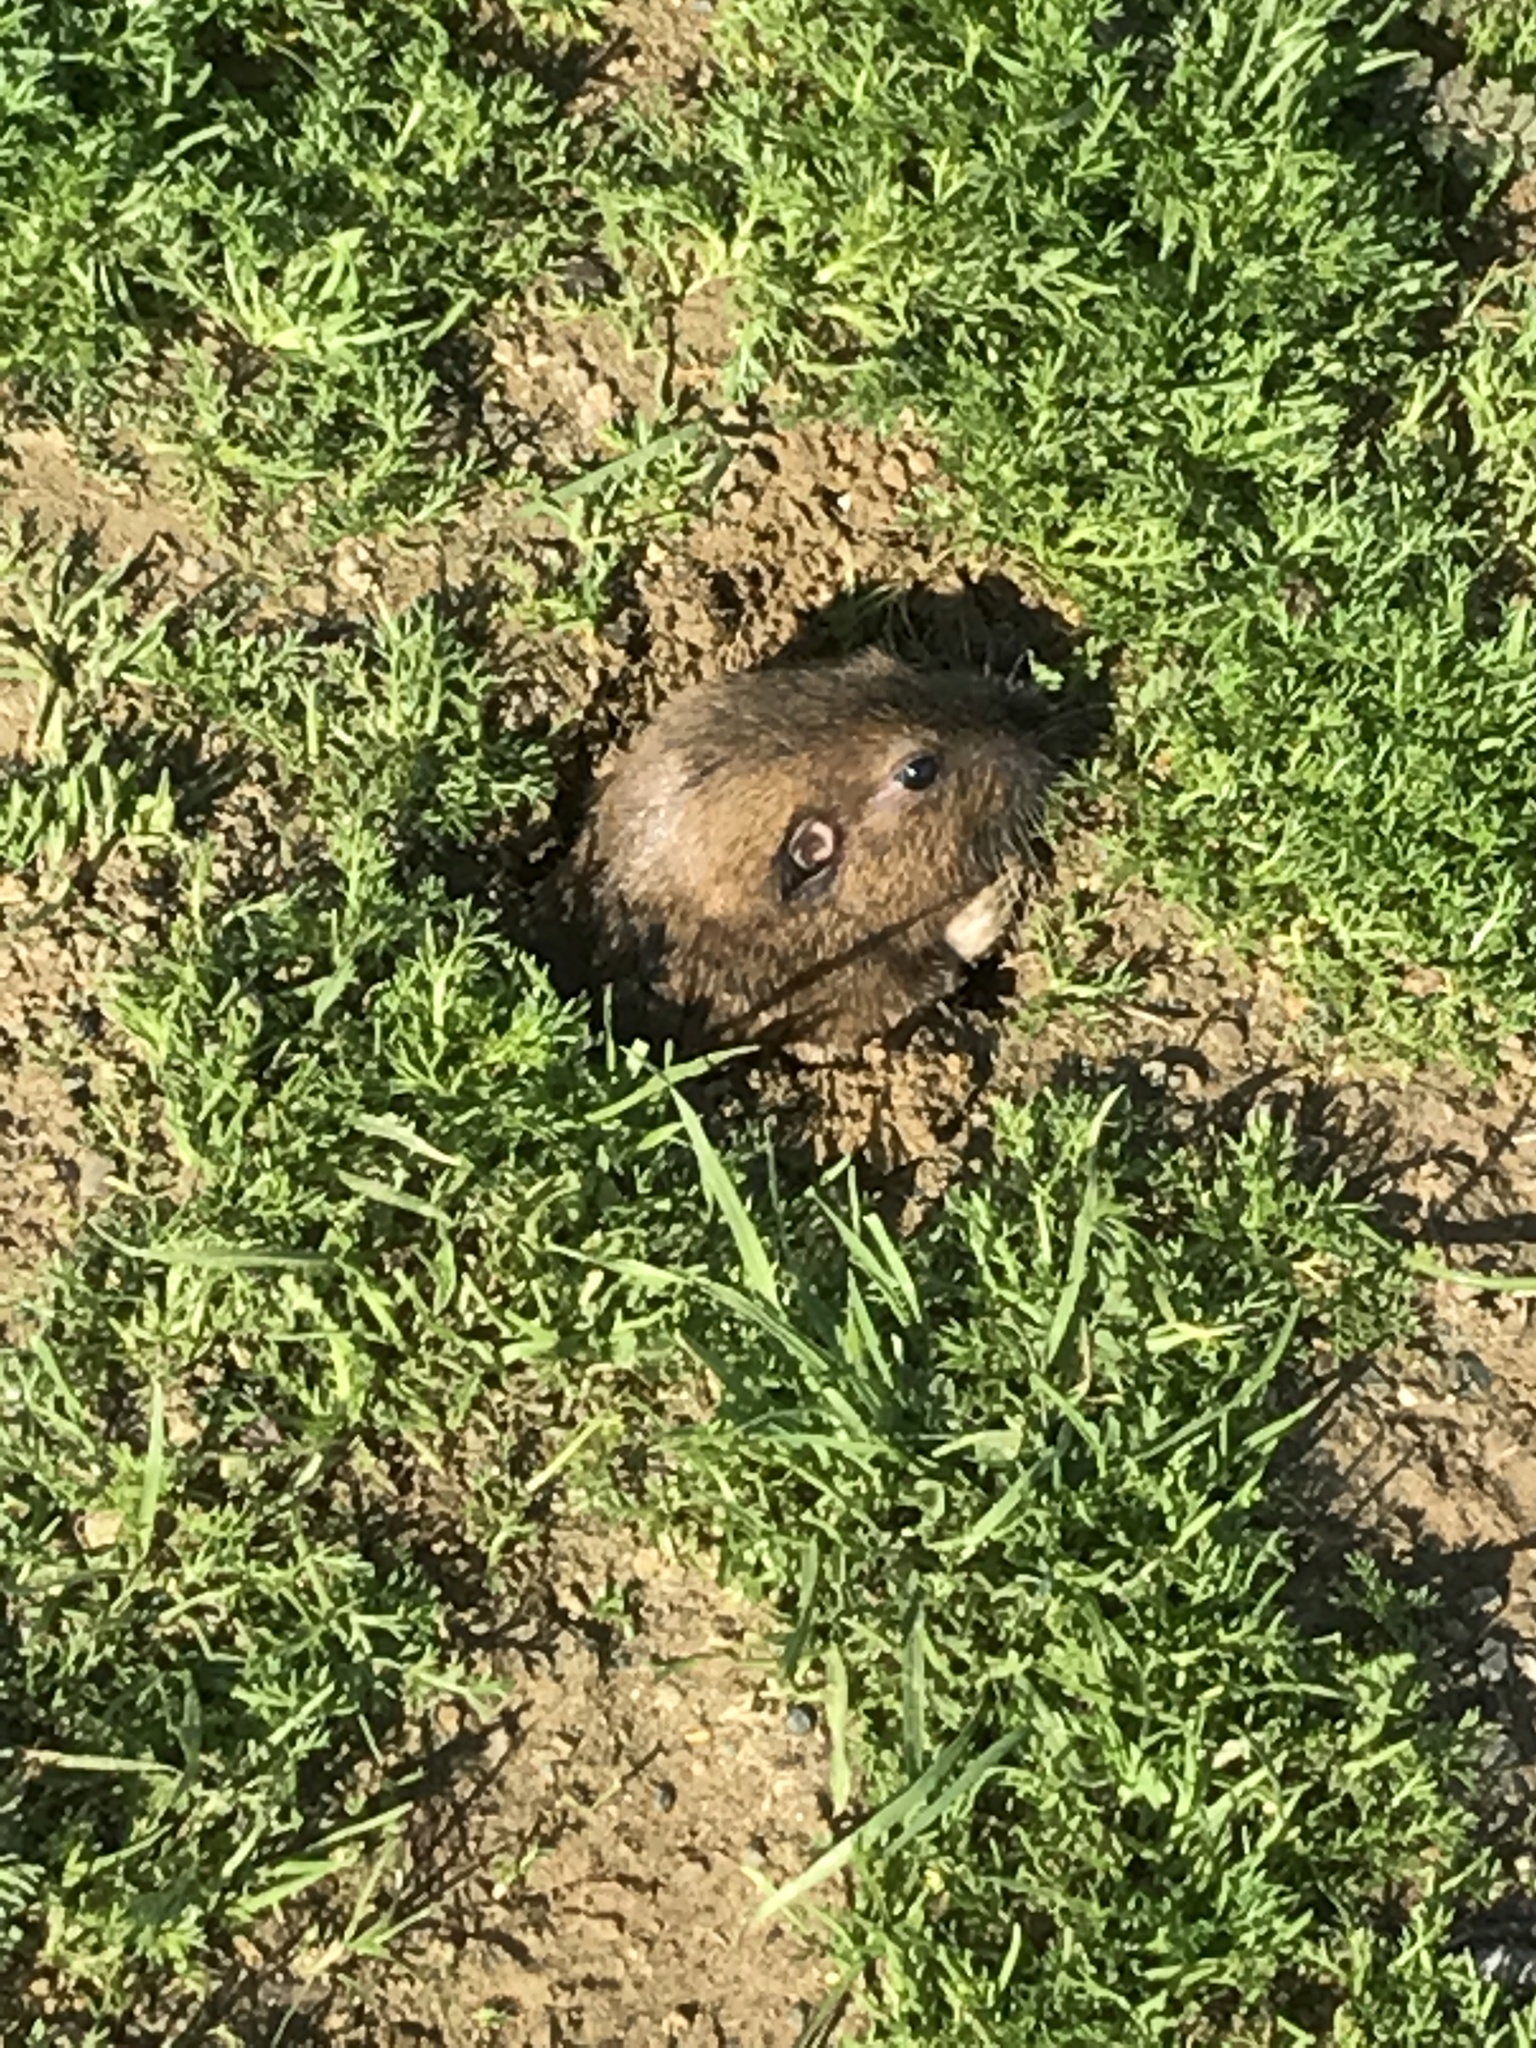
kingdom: Animalia
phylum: Chordata
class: Mammalia
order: Rodentia
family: Geomyidae
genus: Thomomys
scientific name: Thomomys bottae
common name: Botta's pocket gopher
